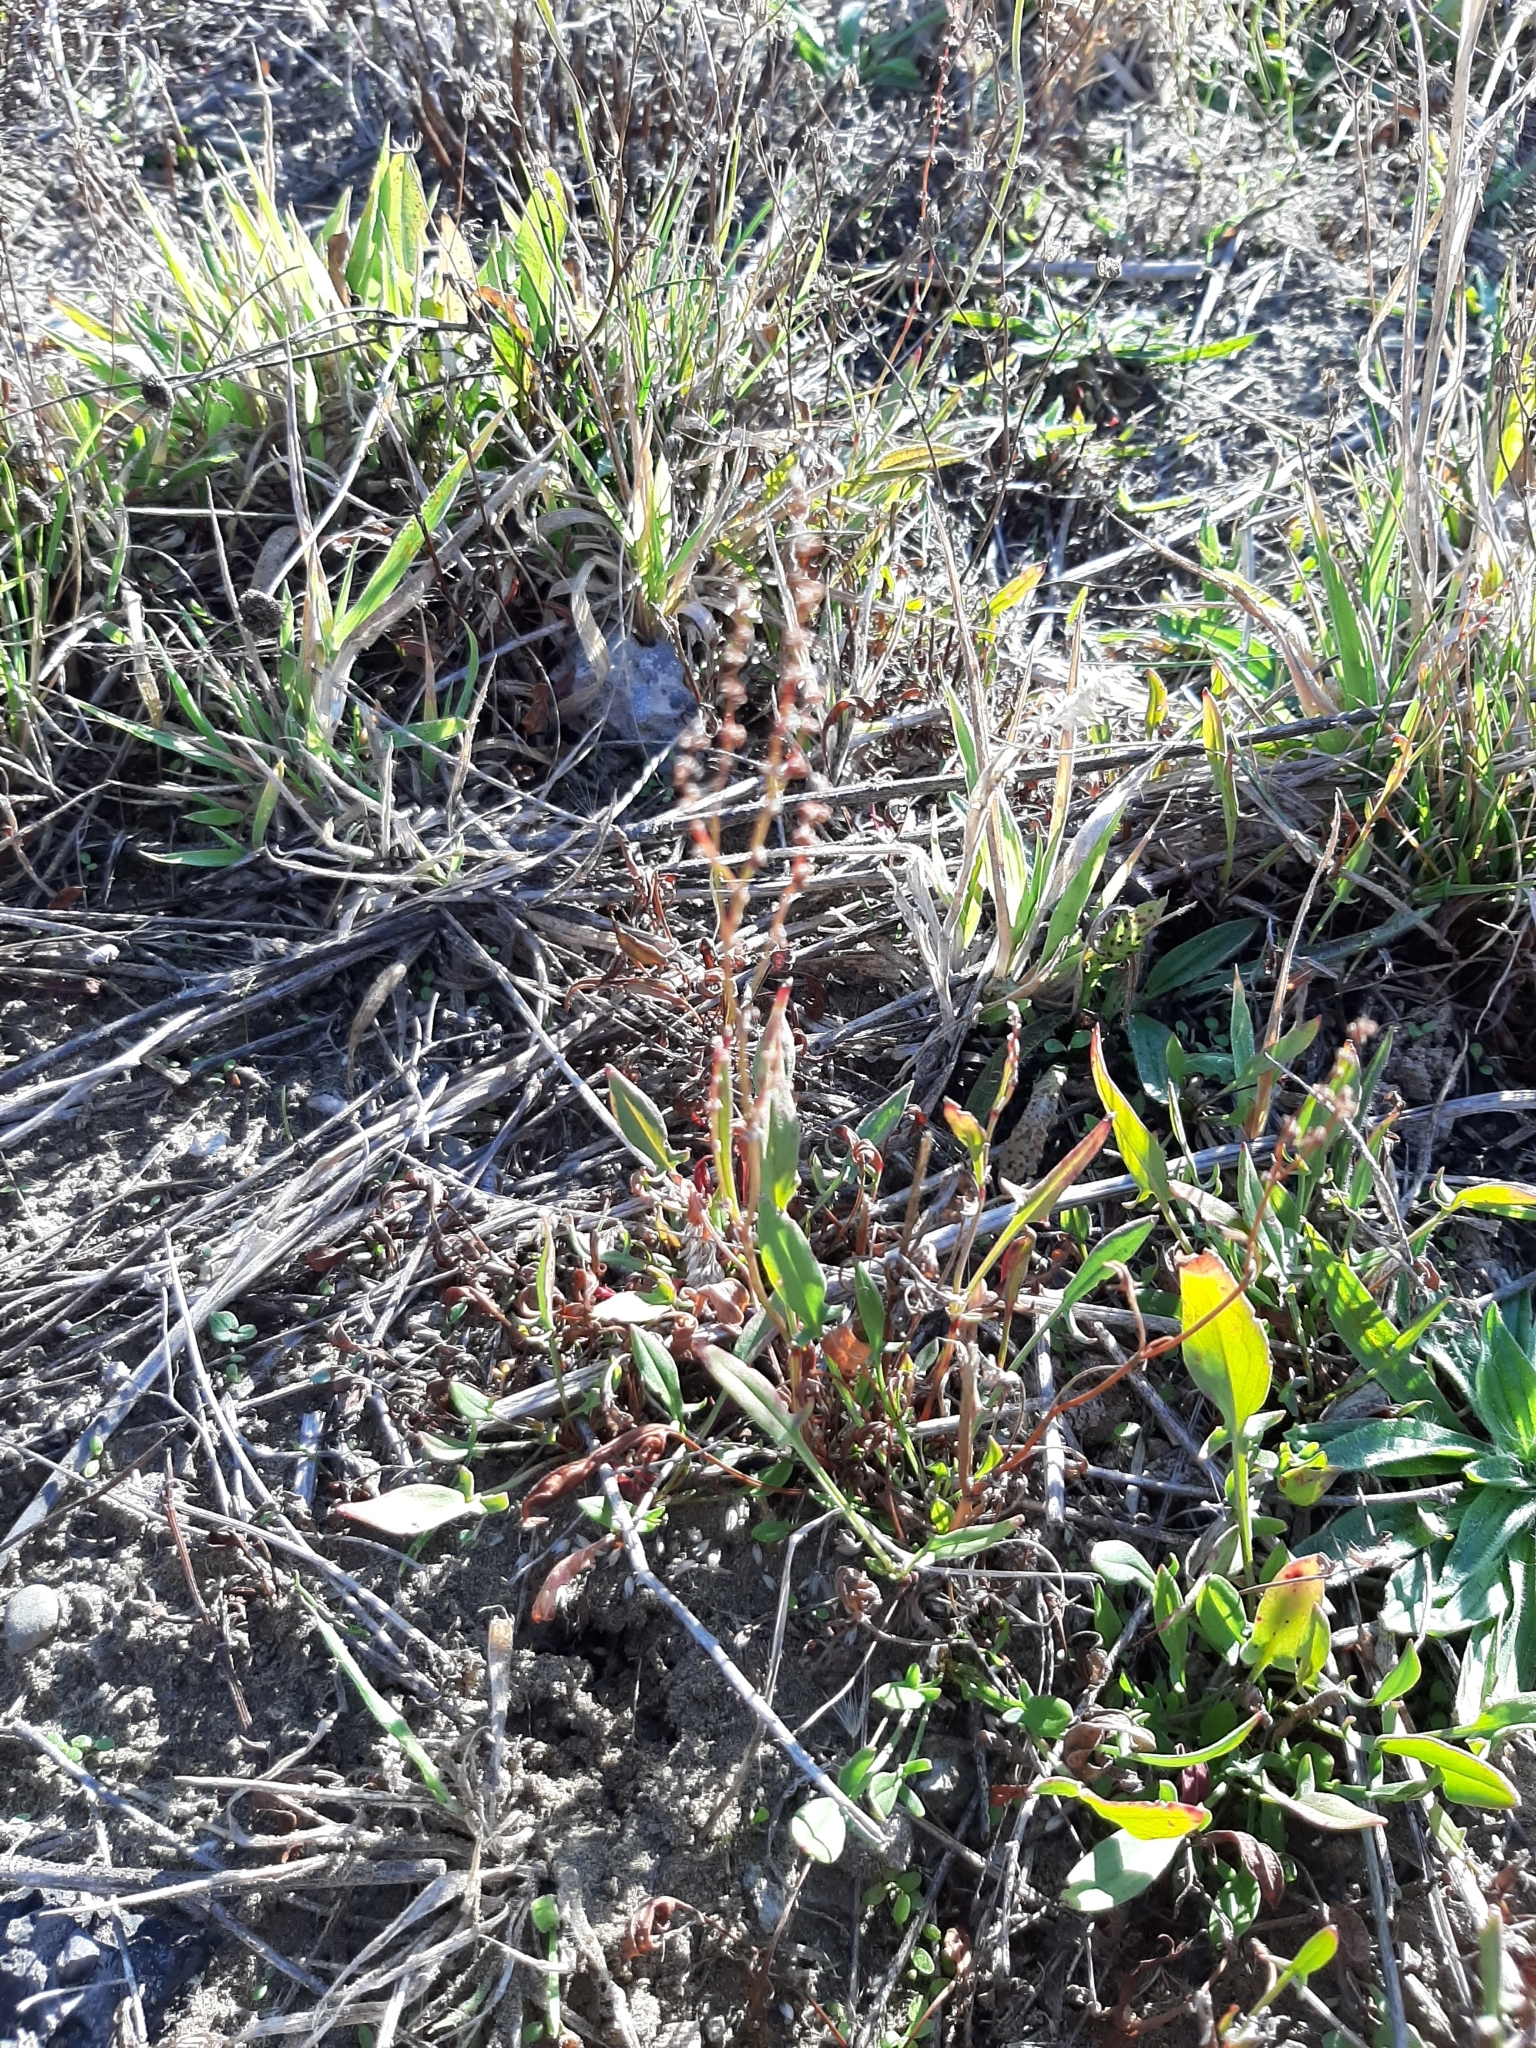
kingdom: Plantae
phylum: Tracheophyta
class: Magnoliopsida
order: Caryophyllales
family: Polygonaceae
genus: Rumex
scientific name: Rumex acetosella
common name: Common sheep sorrel
